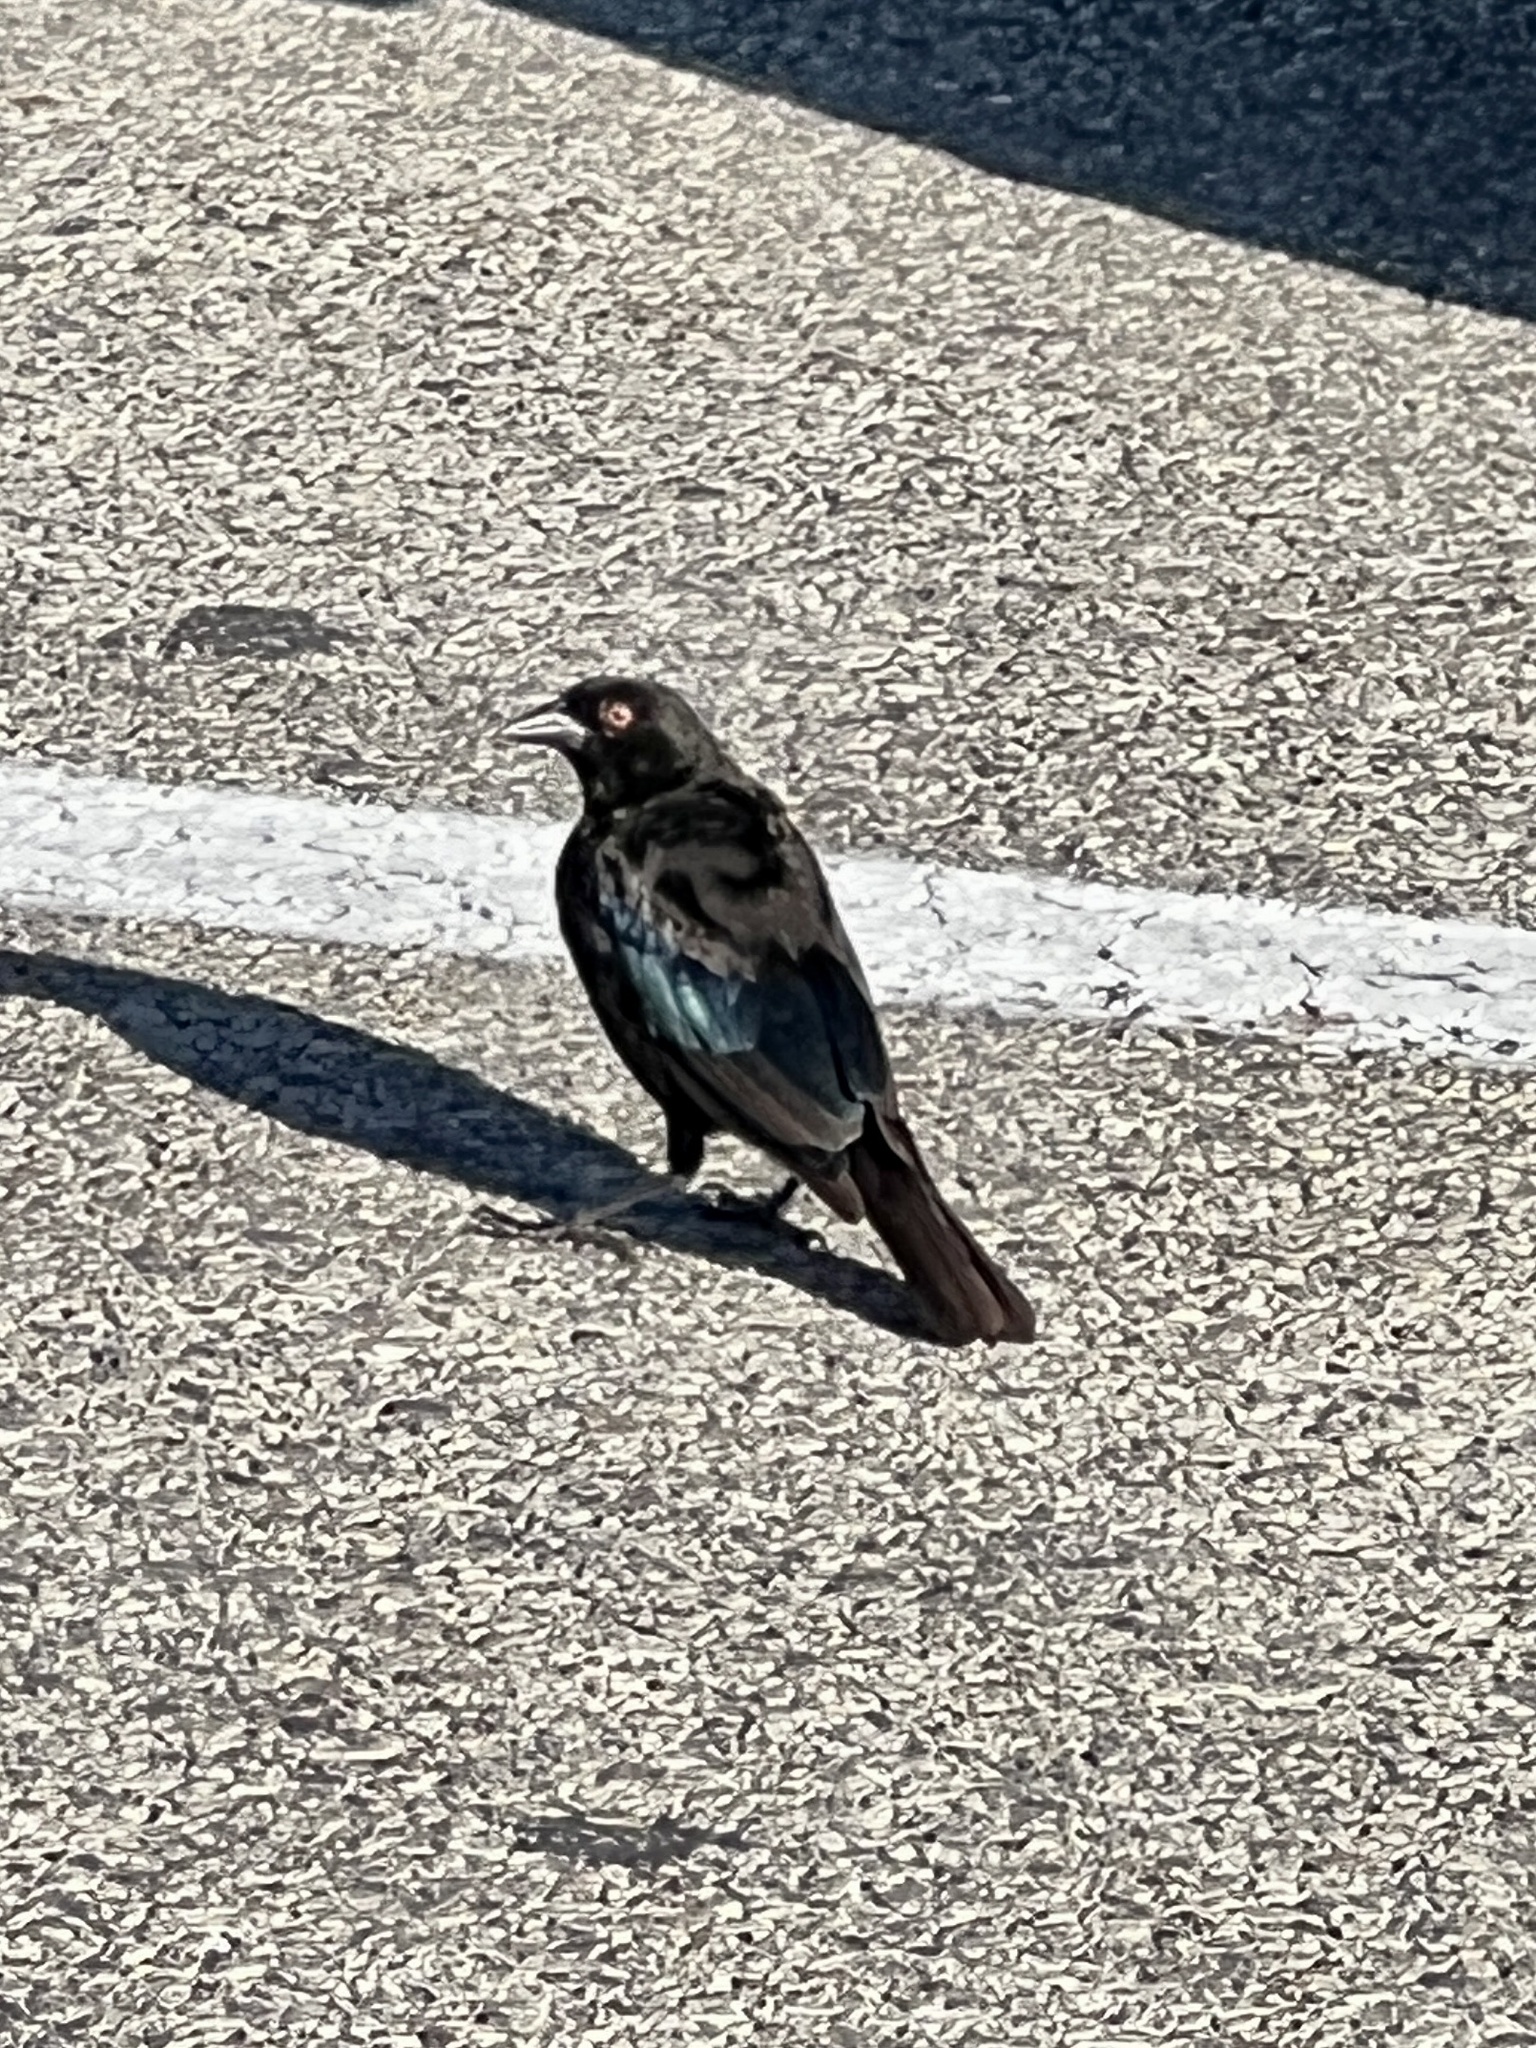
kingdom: Animalia
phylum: Chordata
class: Aves
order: Passeriformes
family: Icteridae
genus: Molothrus
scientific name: Molothrus aeneus
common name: Bronzed cowbird
